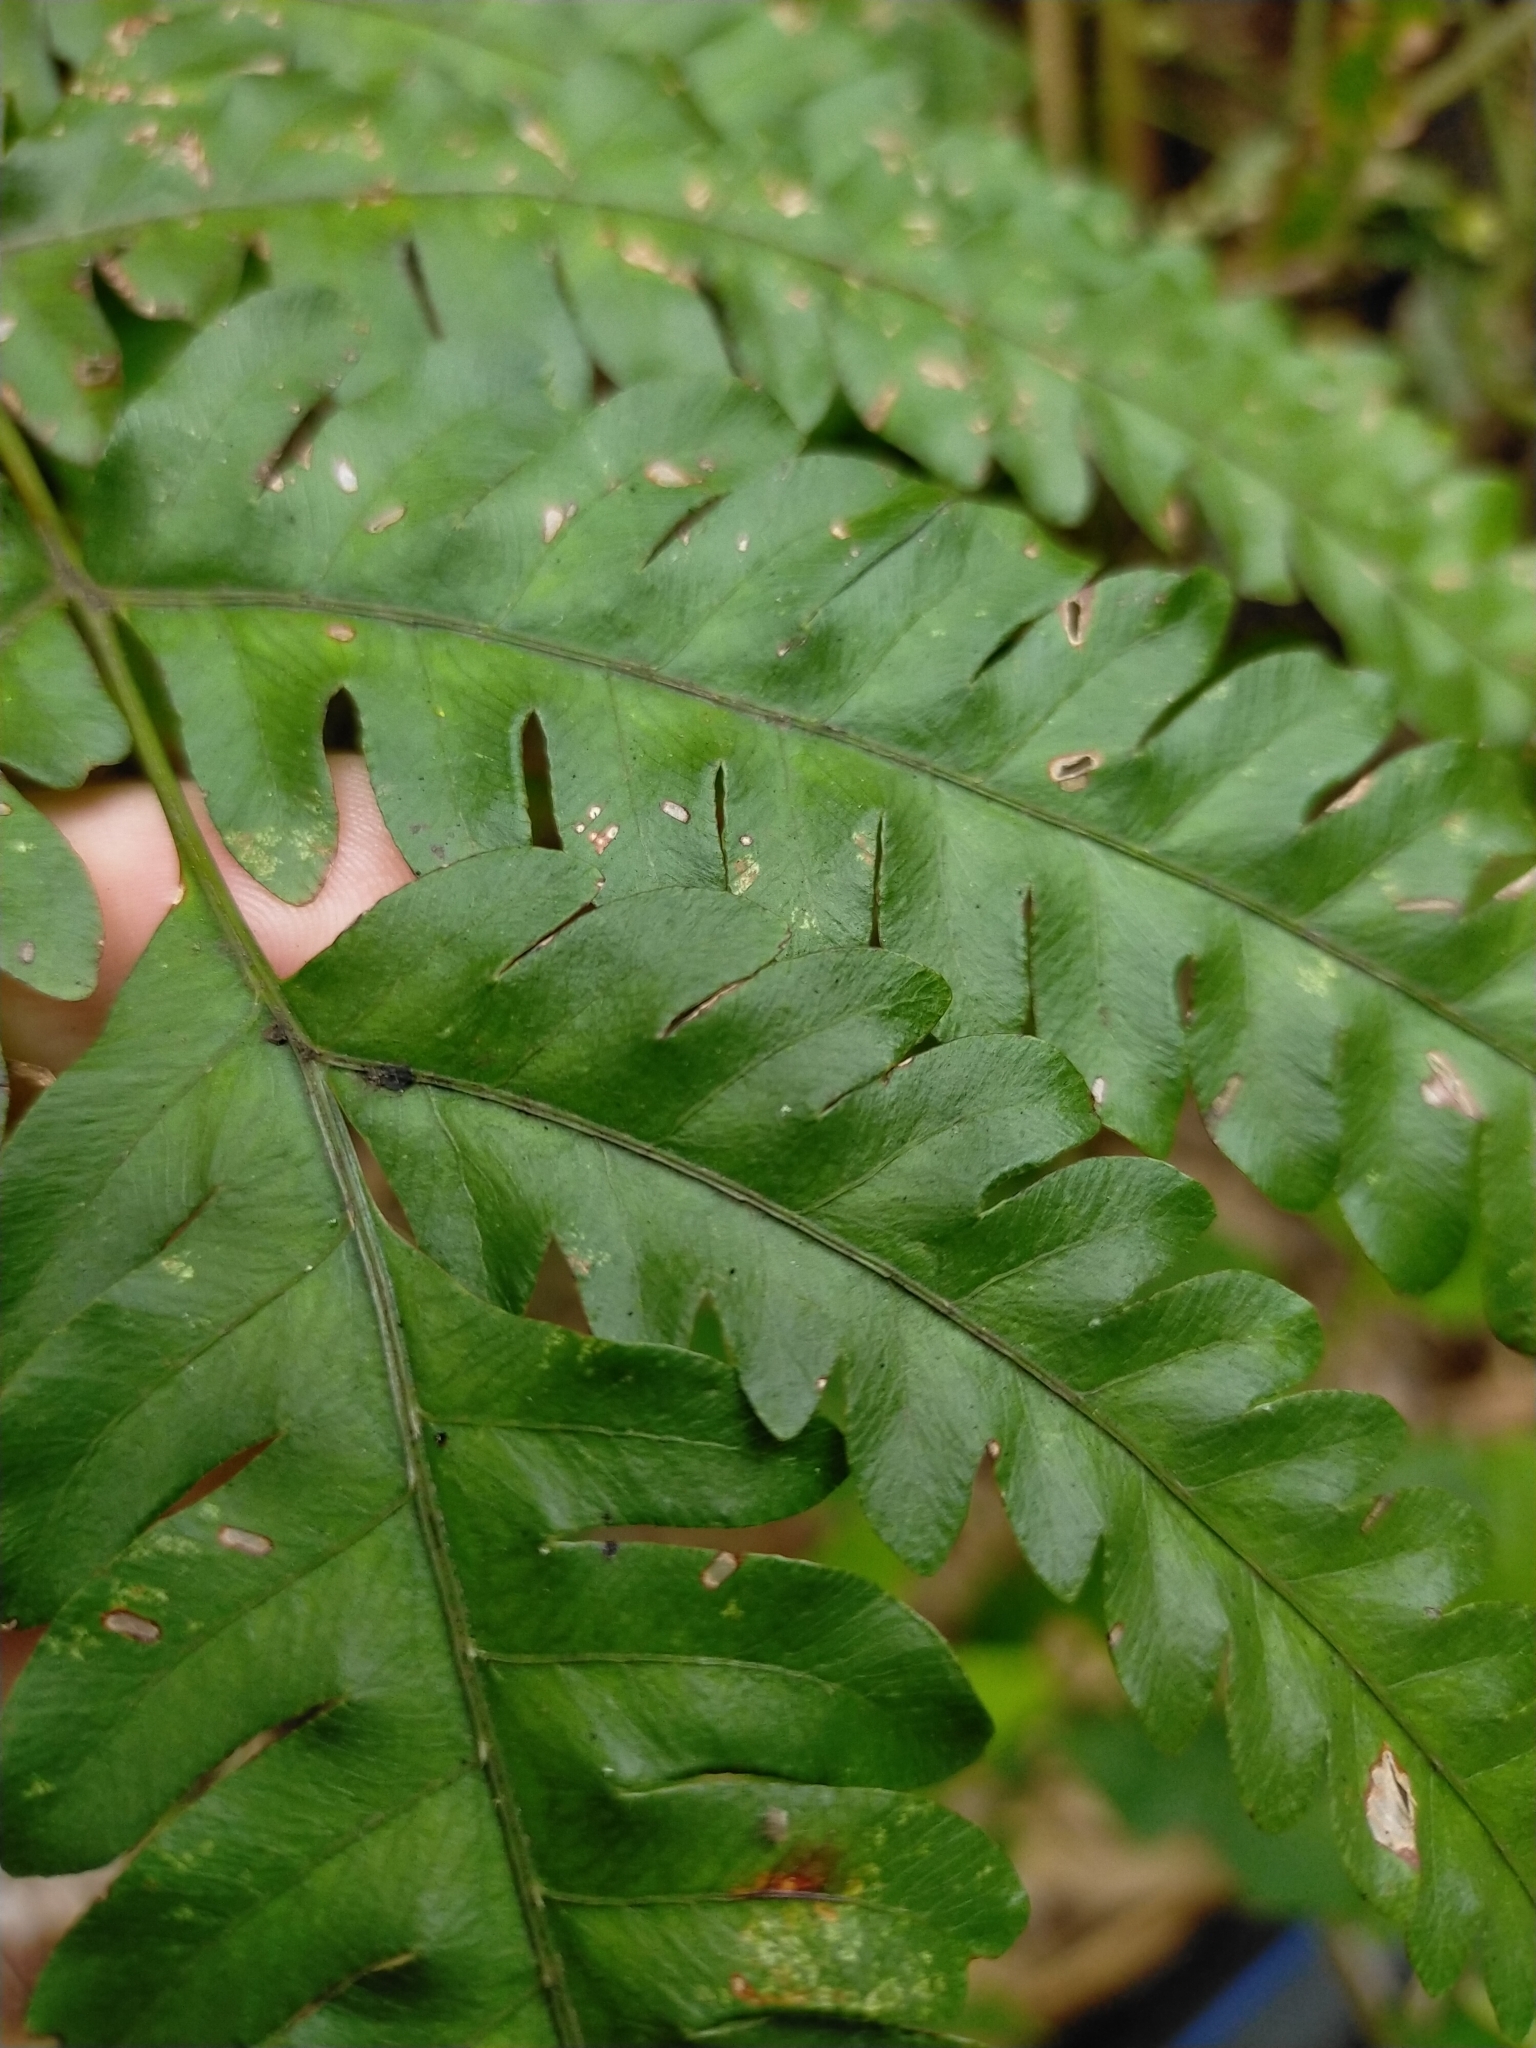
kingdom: Plantae
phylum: Tracheophyta
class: Polypodiopsida
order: Polypodiales
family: Pteridaceae
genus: Pteris
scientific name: Pteris amoena
